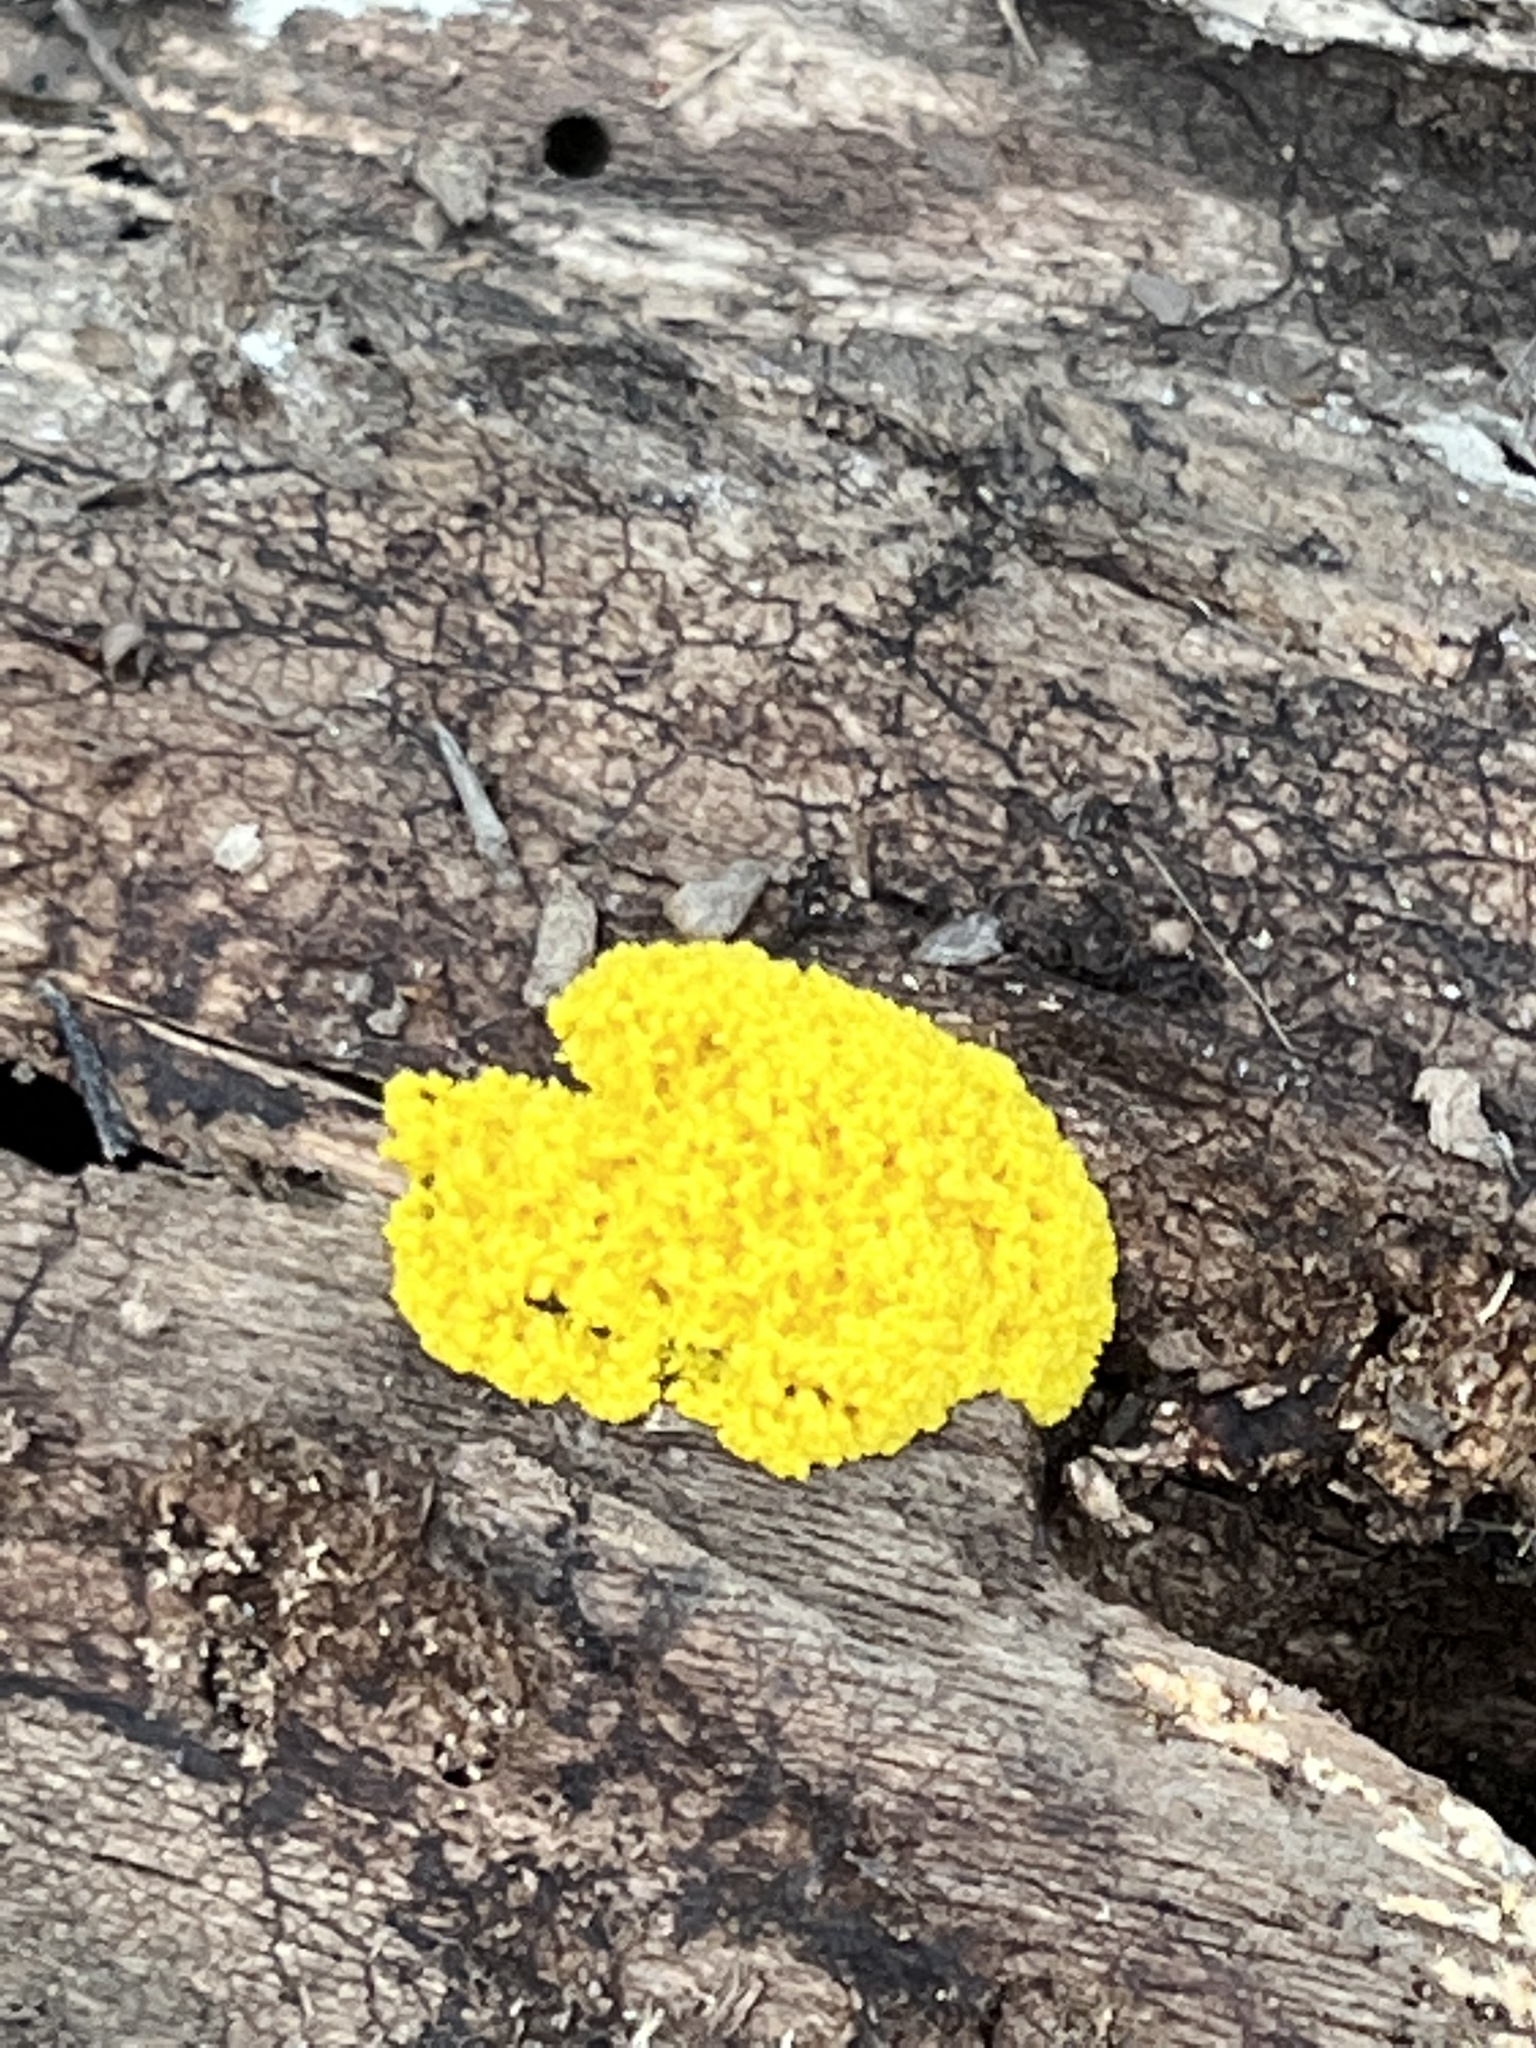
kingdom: Protozoa
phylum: Mycetozoa
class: Myxomycetes
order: Physarales
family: Physaraceae
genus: Fuligo
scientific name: Fuligo septica
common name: Dog vomit slime mold
